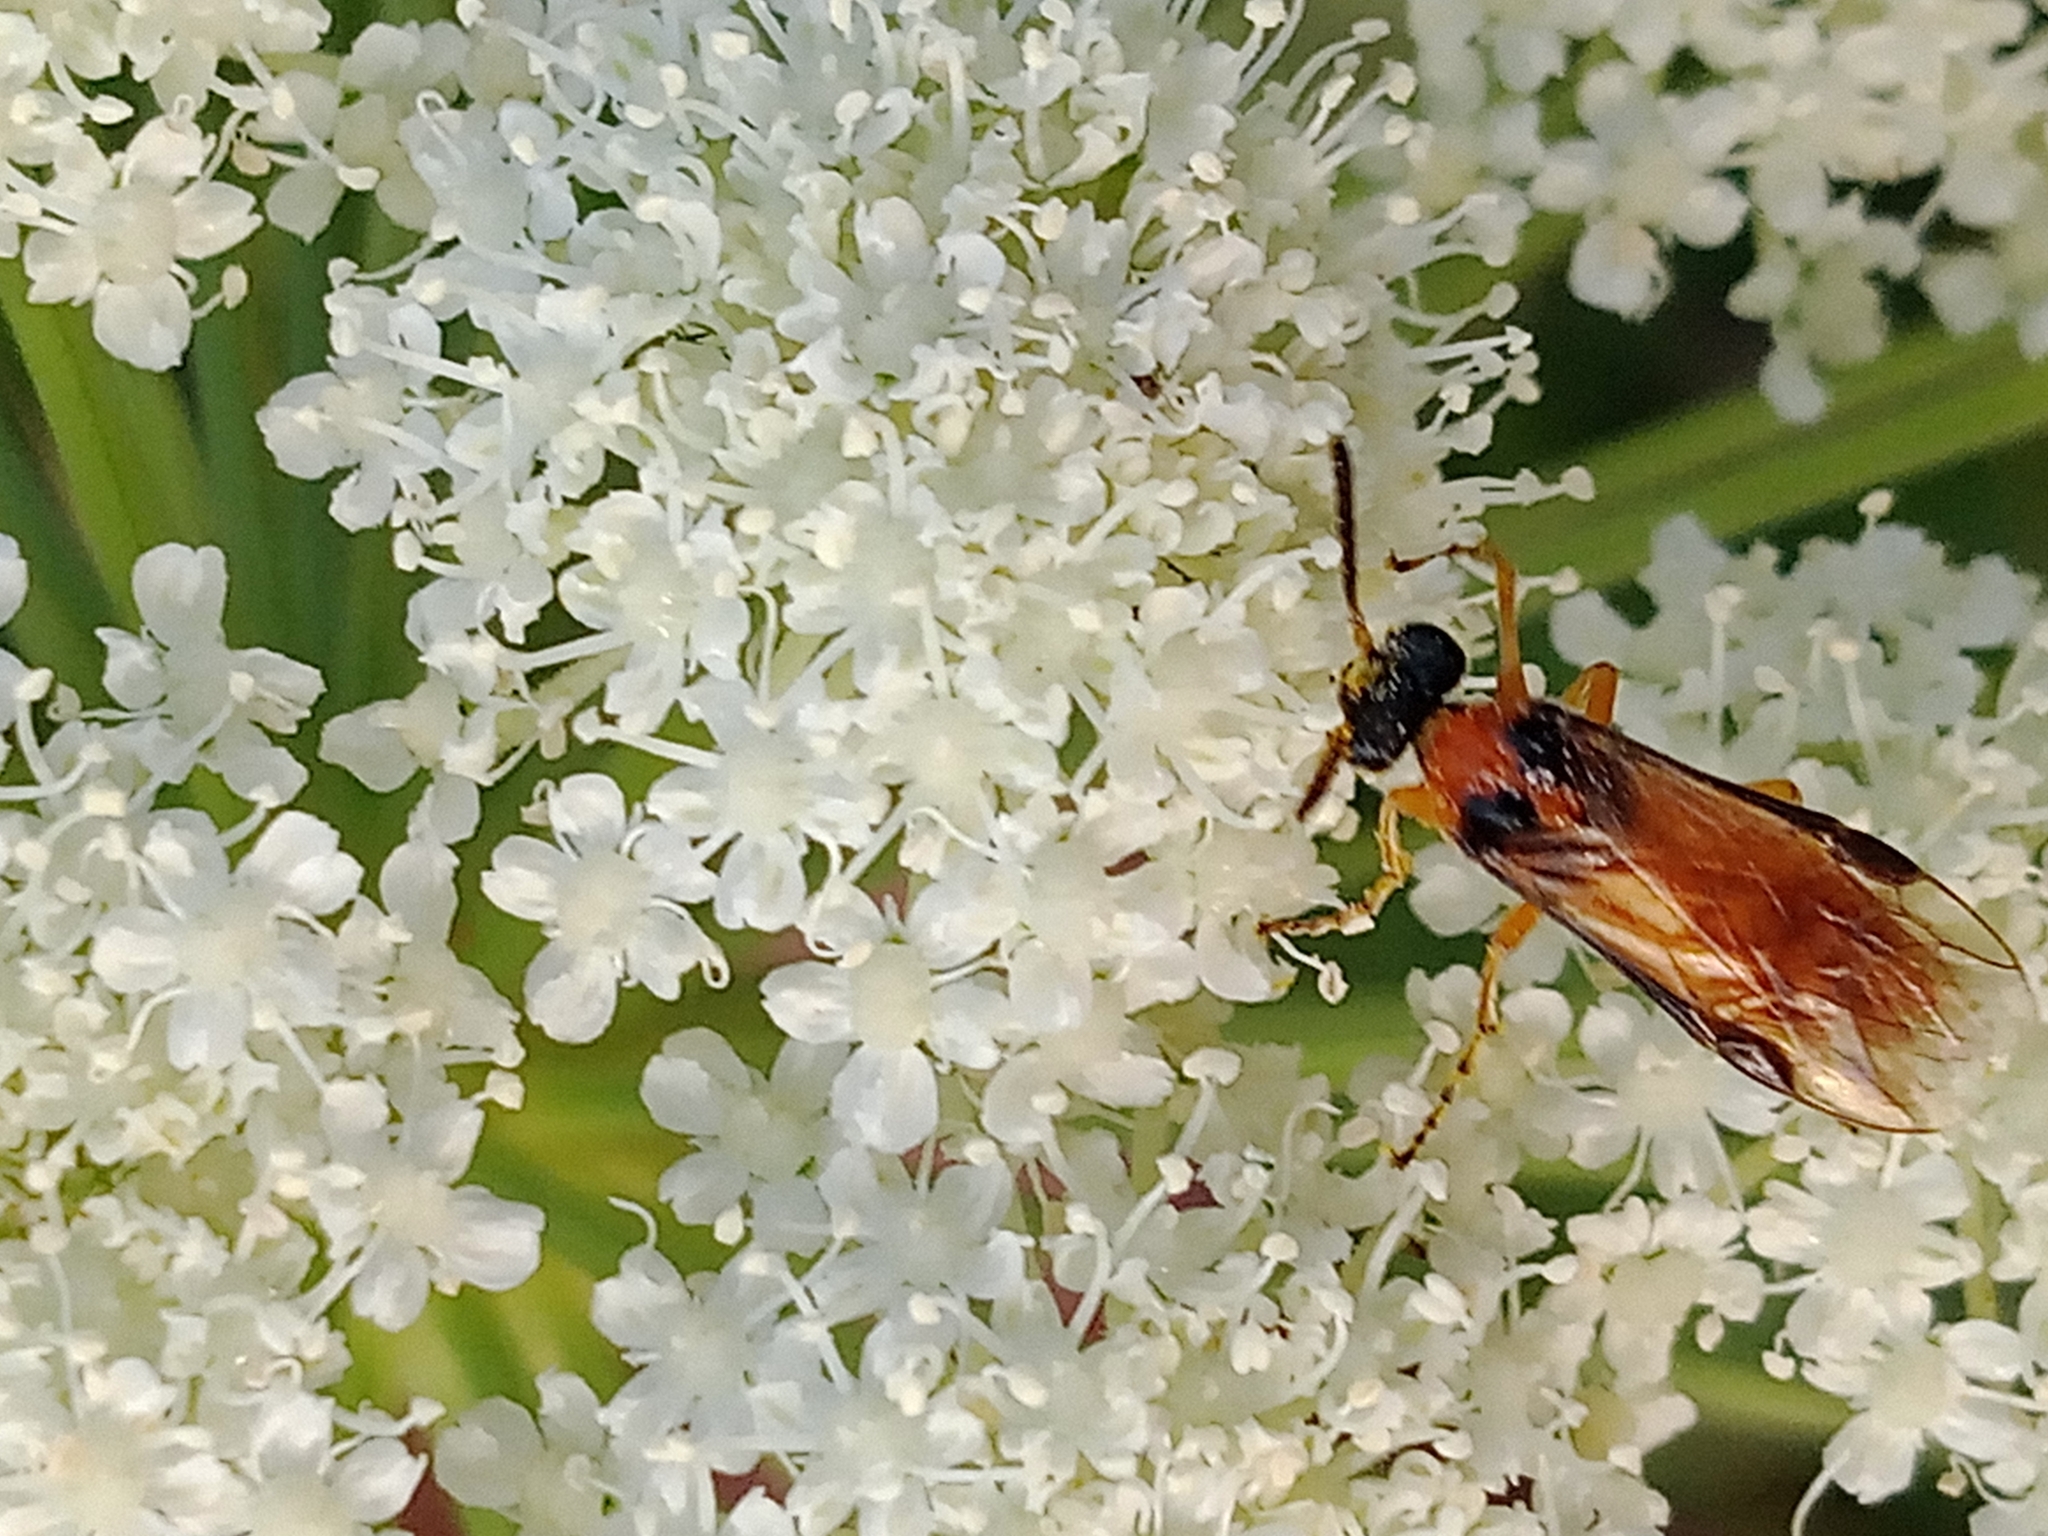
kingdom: Animalia
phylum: Arthropoda
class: Insecta
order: Hymenoptera
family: Tenthredinidae
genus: Athalia
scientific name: Athalia rosae
